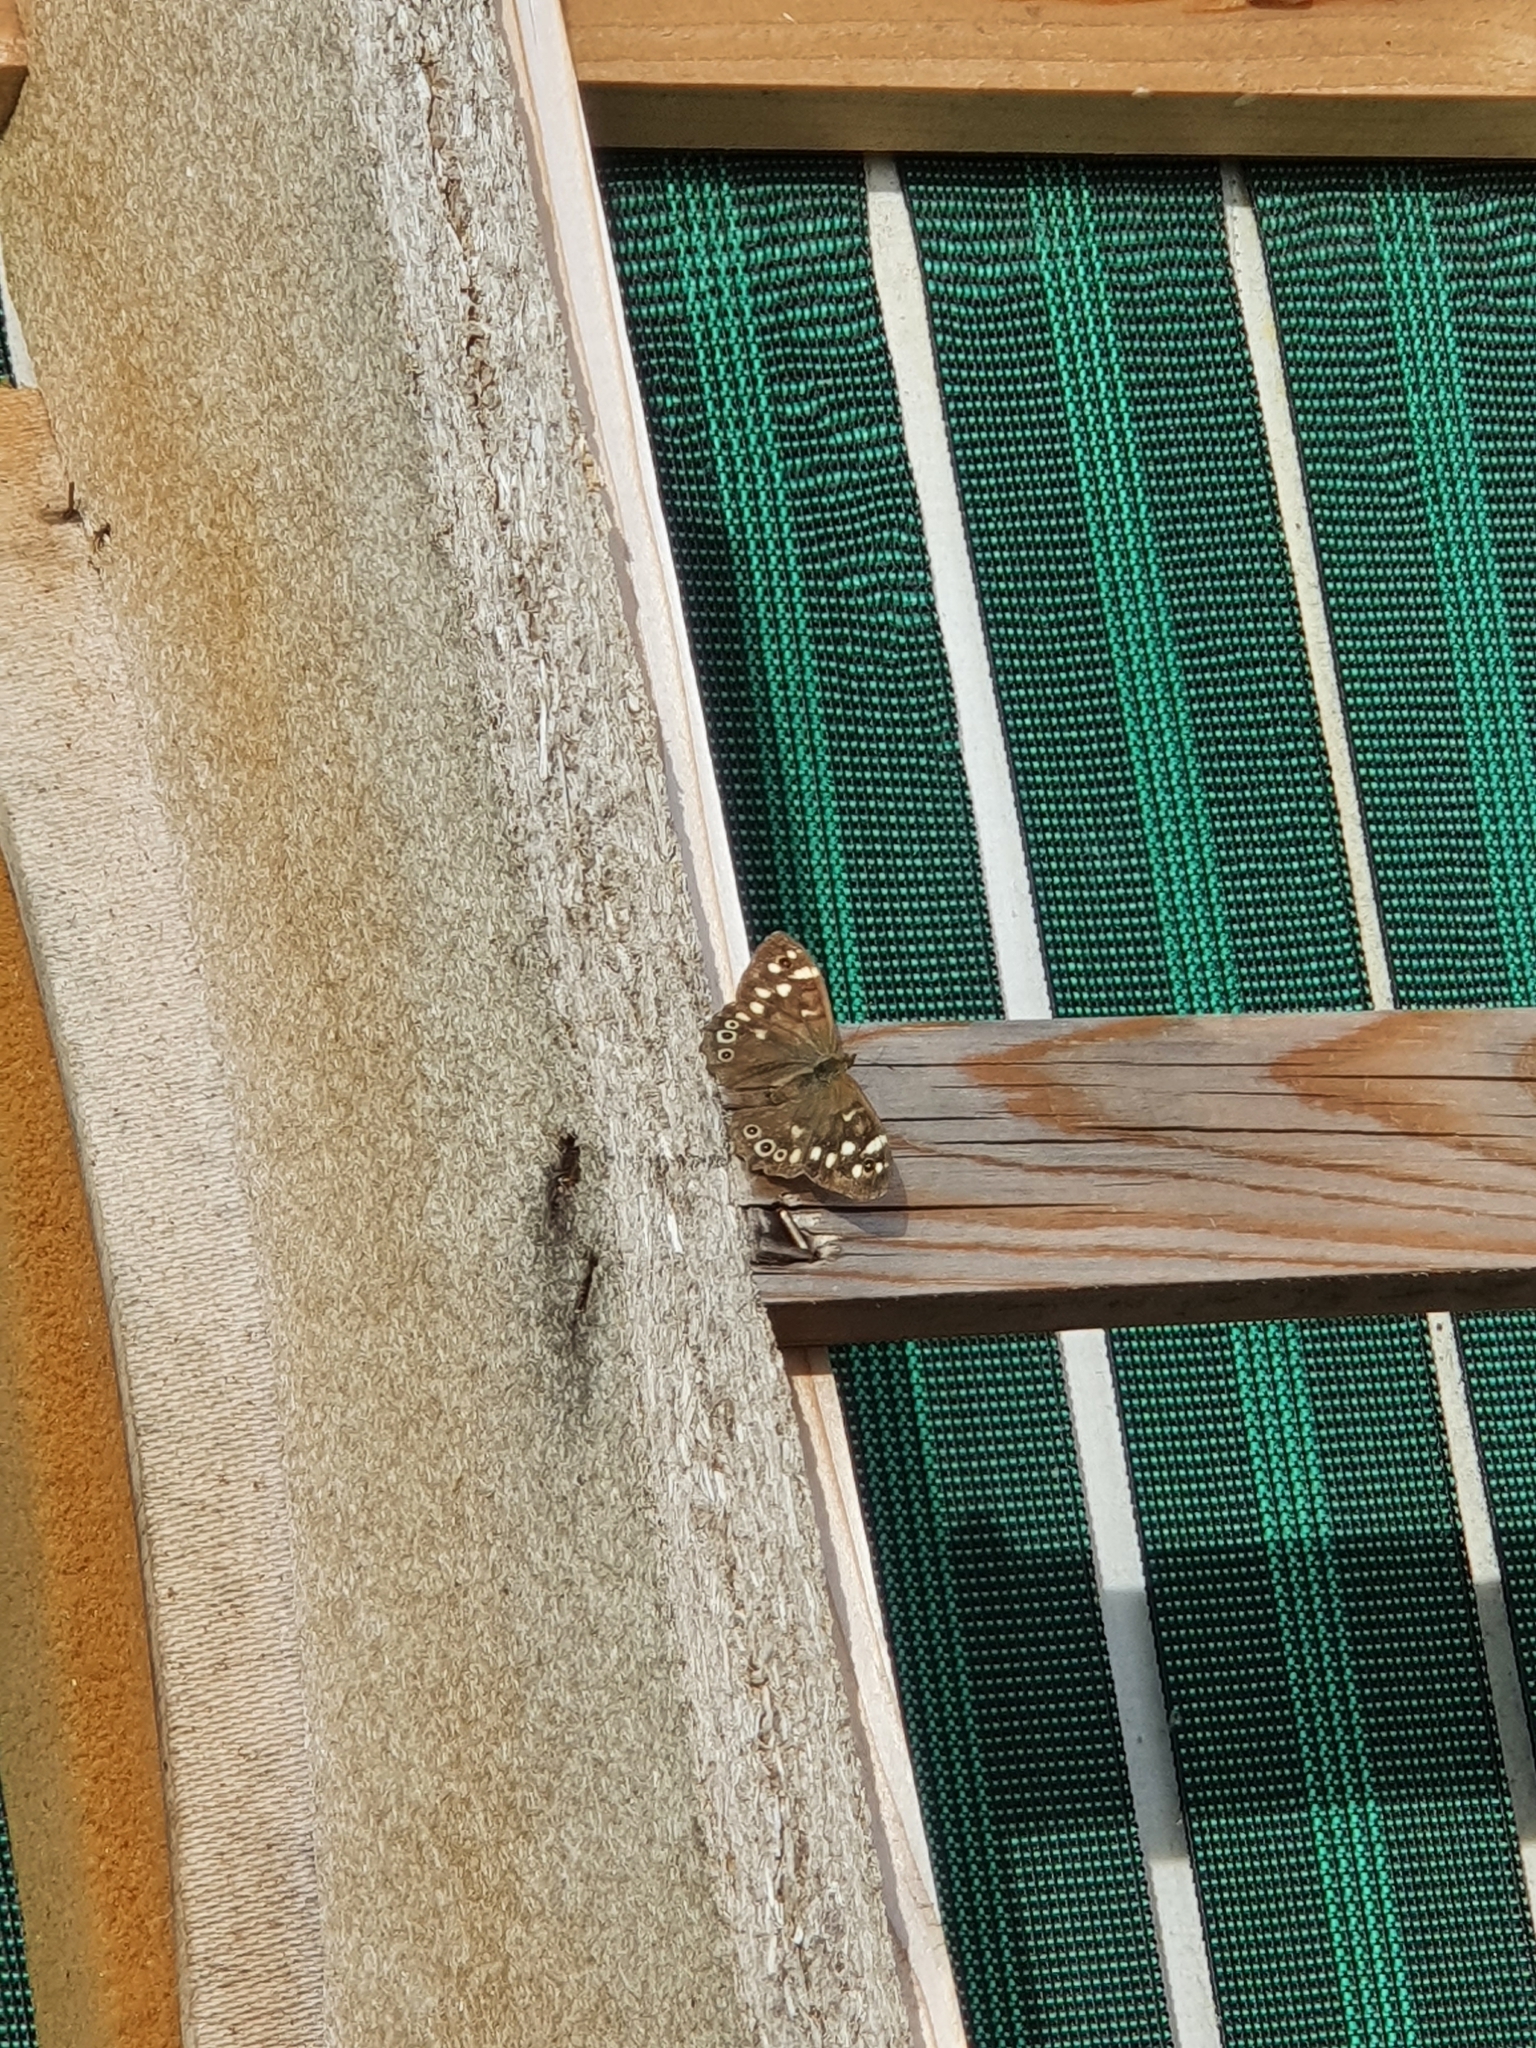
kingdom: Animalia
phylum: Arthropoda
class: Insecta
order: Lepidoptera
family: Nymphalidae
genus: Pararge
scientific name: Pararge aegeria
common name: Speckled wood
